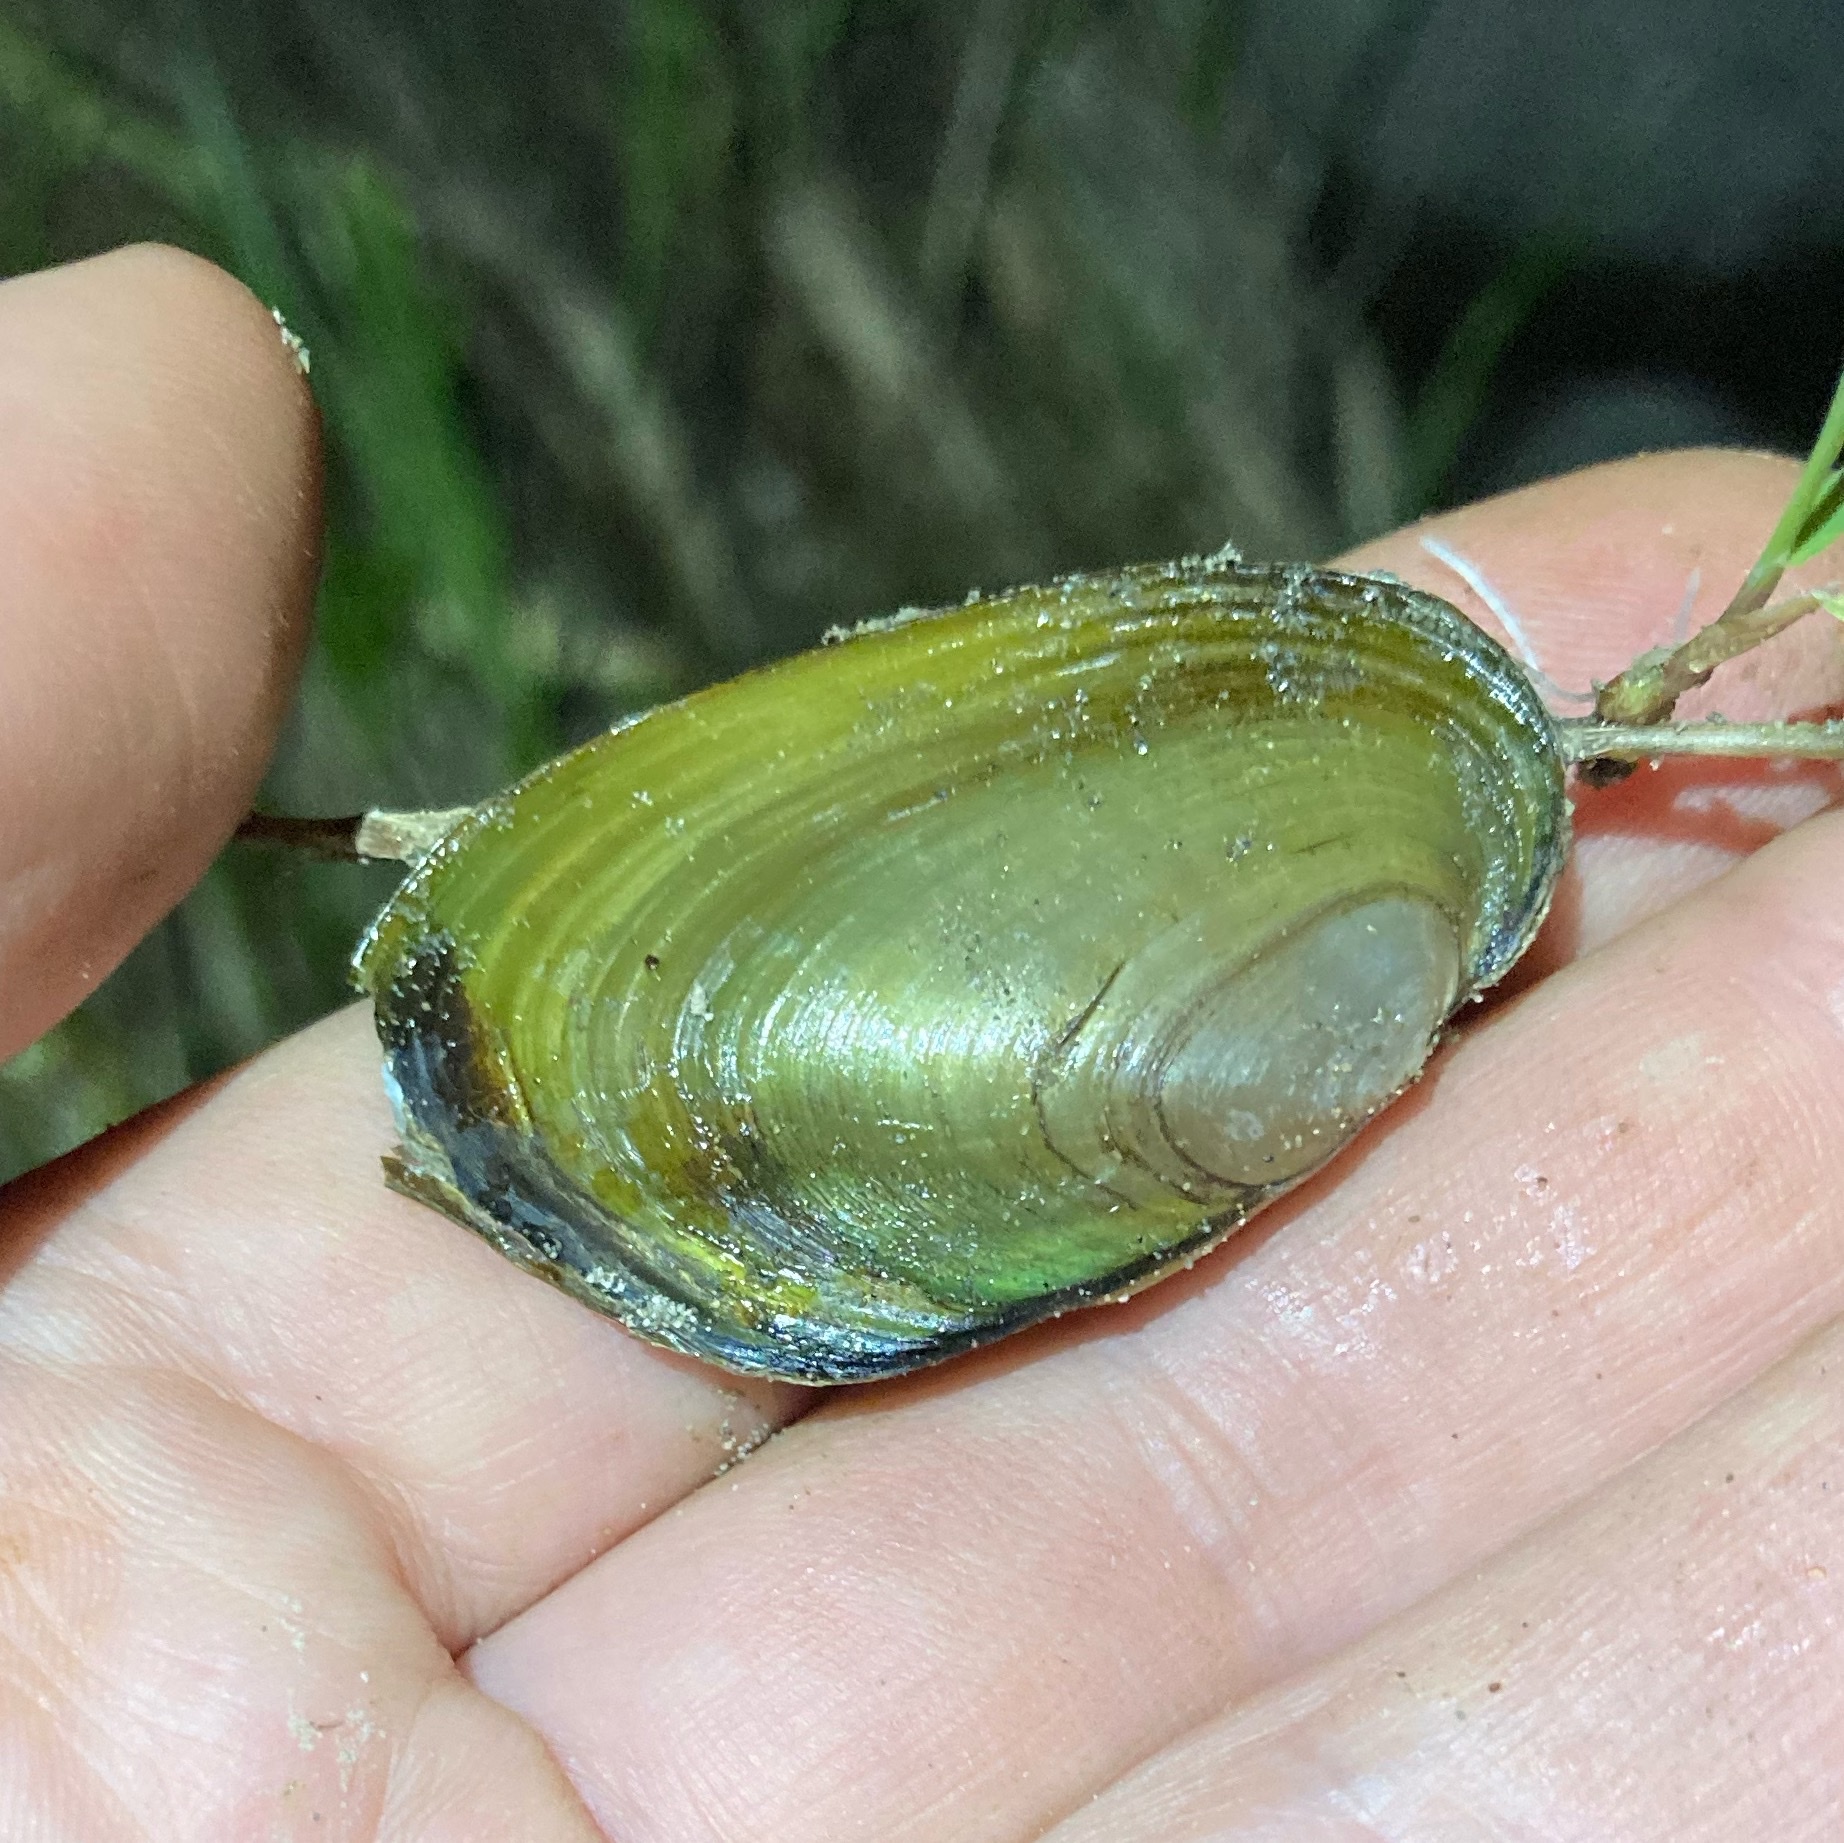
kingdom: Animalia
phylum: Mollusca
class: Bivalvia
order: Unionida
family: Hyriidae
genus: Echyridella
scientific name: Echyridella menziesii
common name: New zealand freshwater mussel
